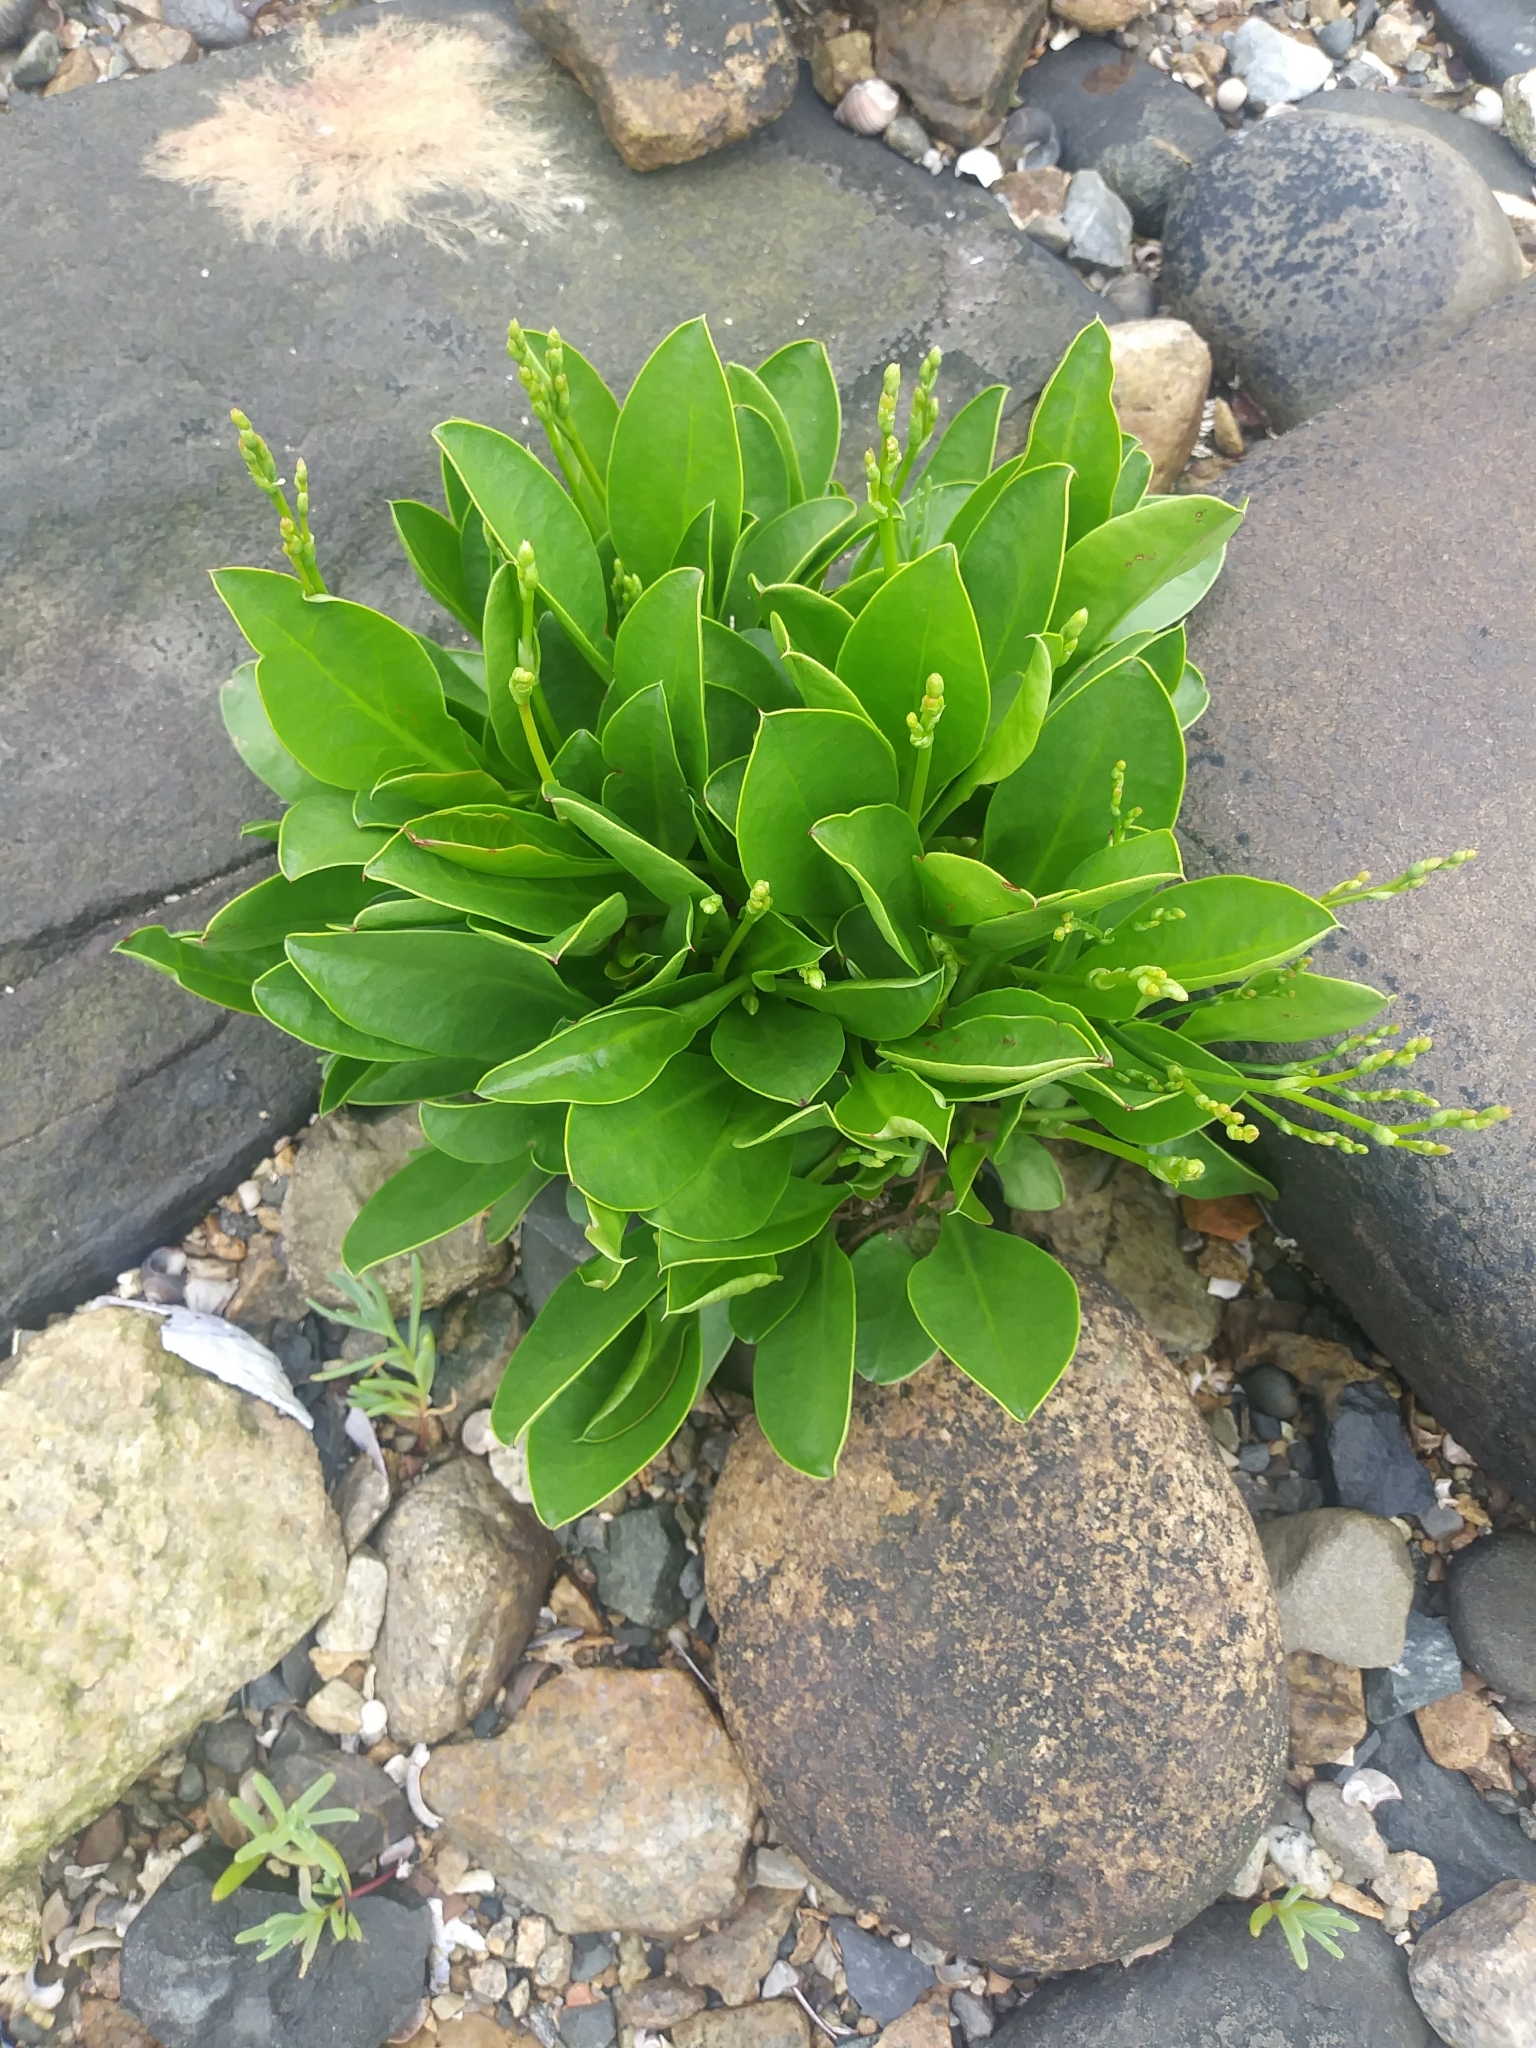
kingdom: Plantae
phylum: Tracheophyta
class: Magnoliopsida
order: Caryophyllales
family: Plumbaginaceae
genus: Limonium
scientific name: Limonium carolinianum
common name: Carolina sea lavender
